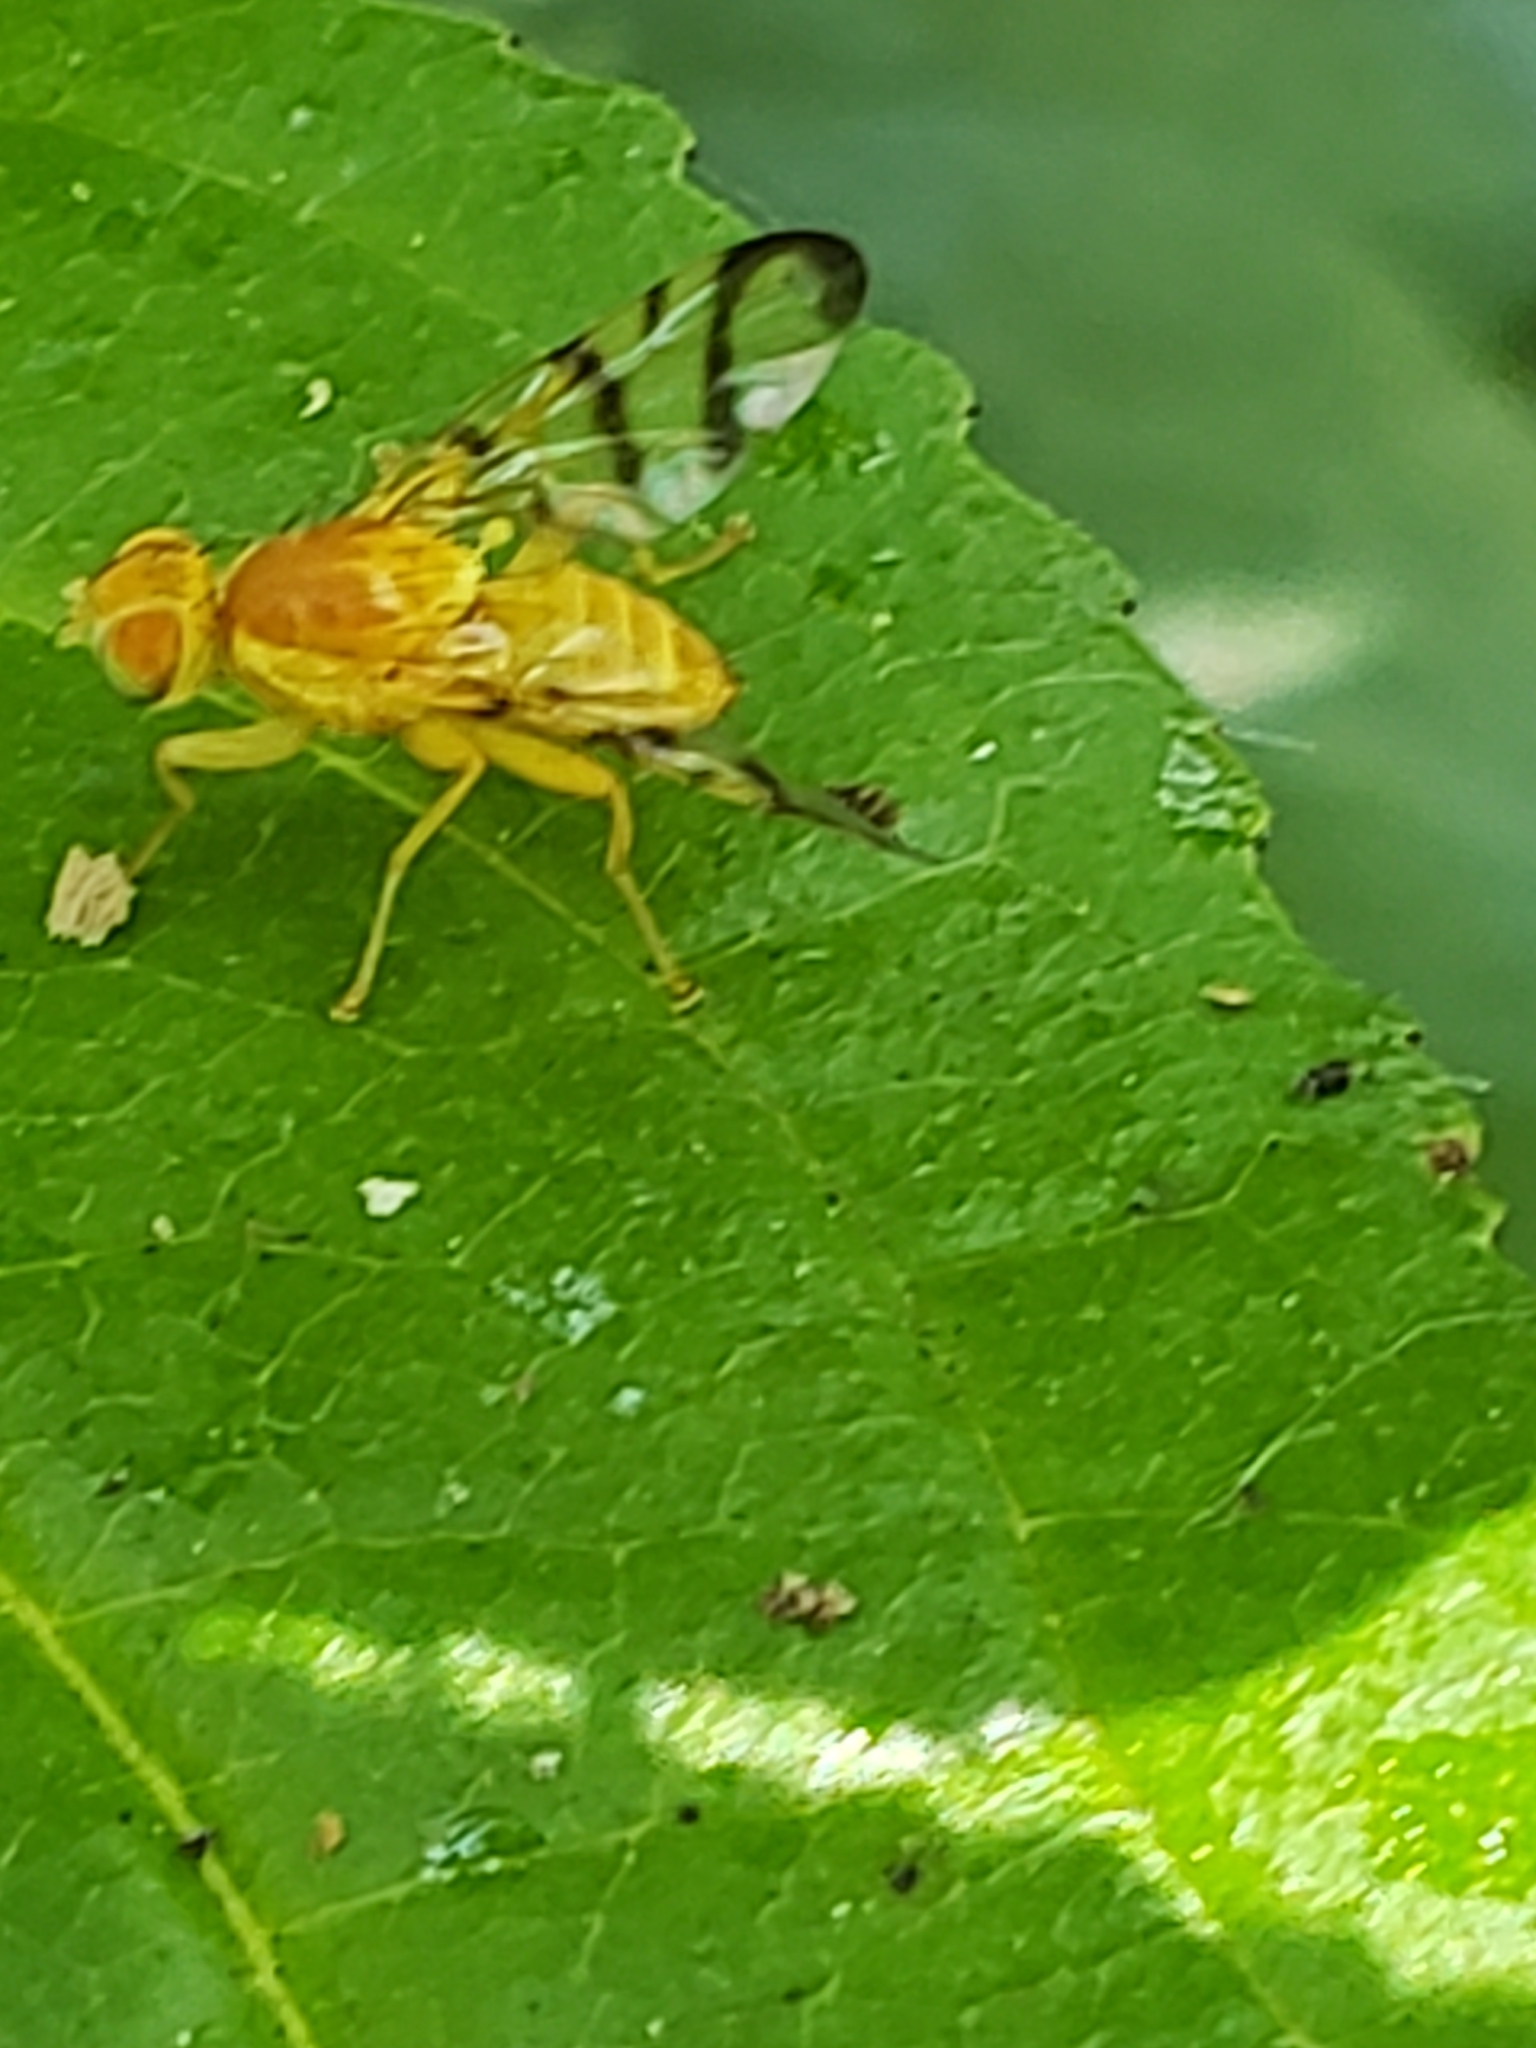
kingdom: Animalia
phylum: Arthropoda
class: Insecta
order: Diptera
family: Tephritidae
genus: Rhagoletis
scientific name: Rhagoletis basiola
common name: Rose hip fly
